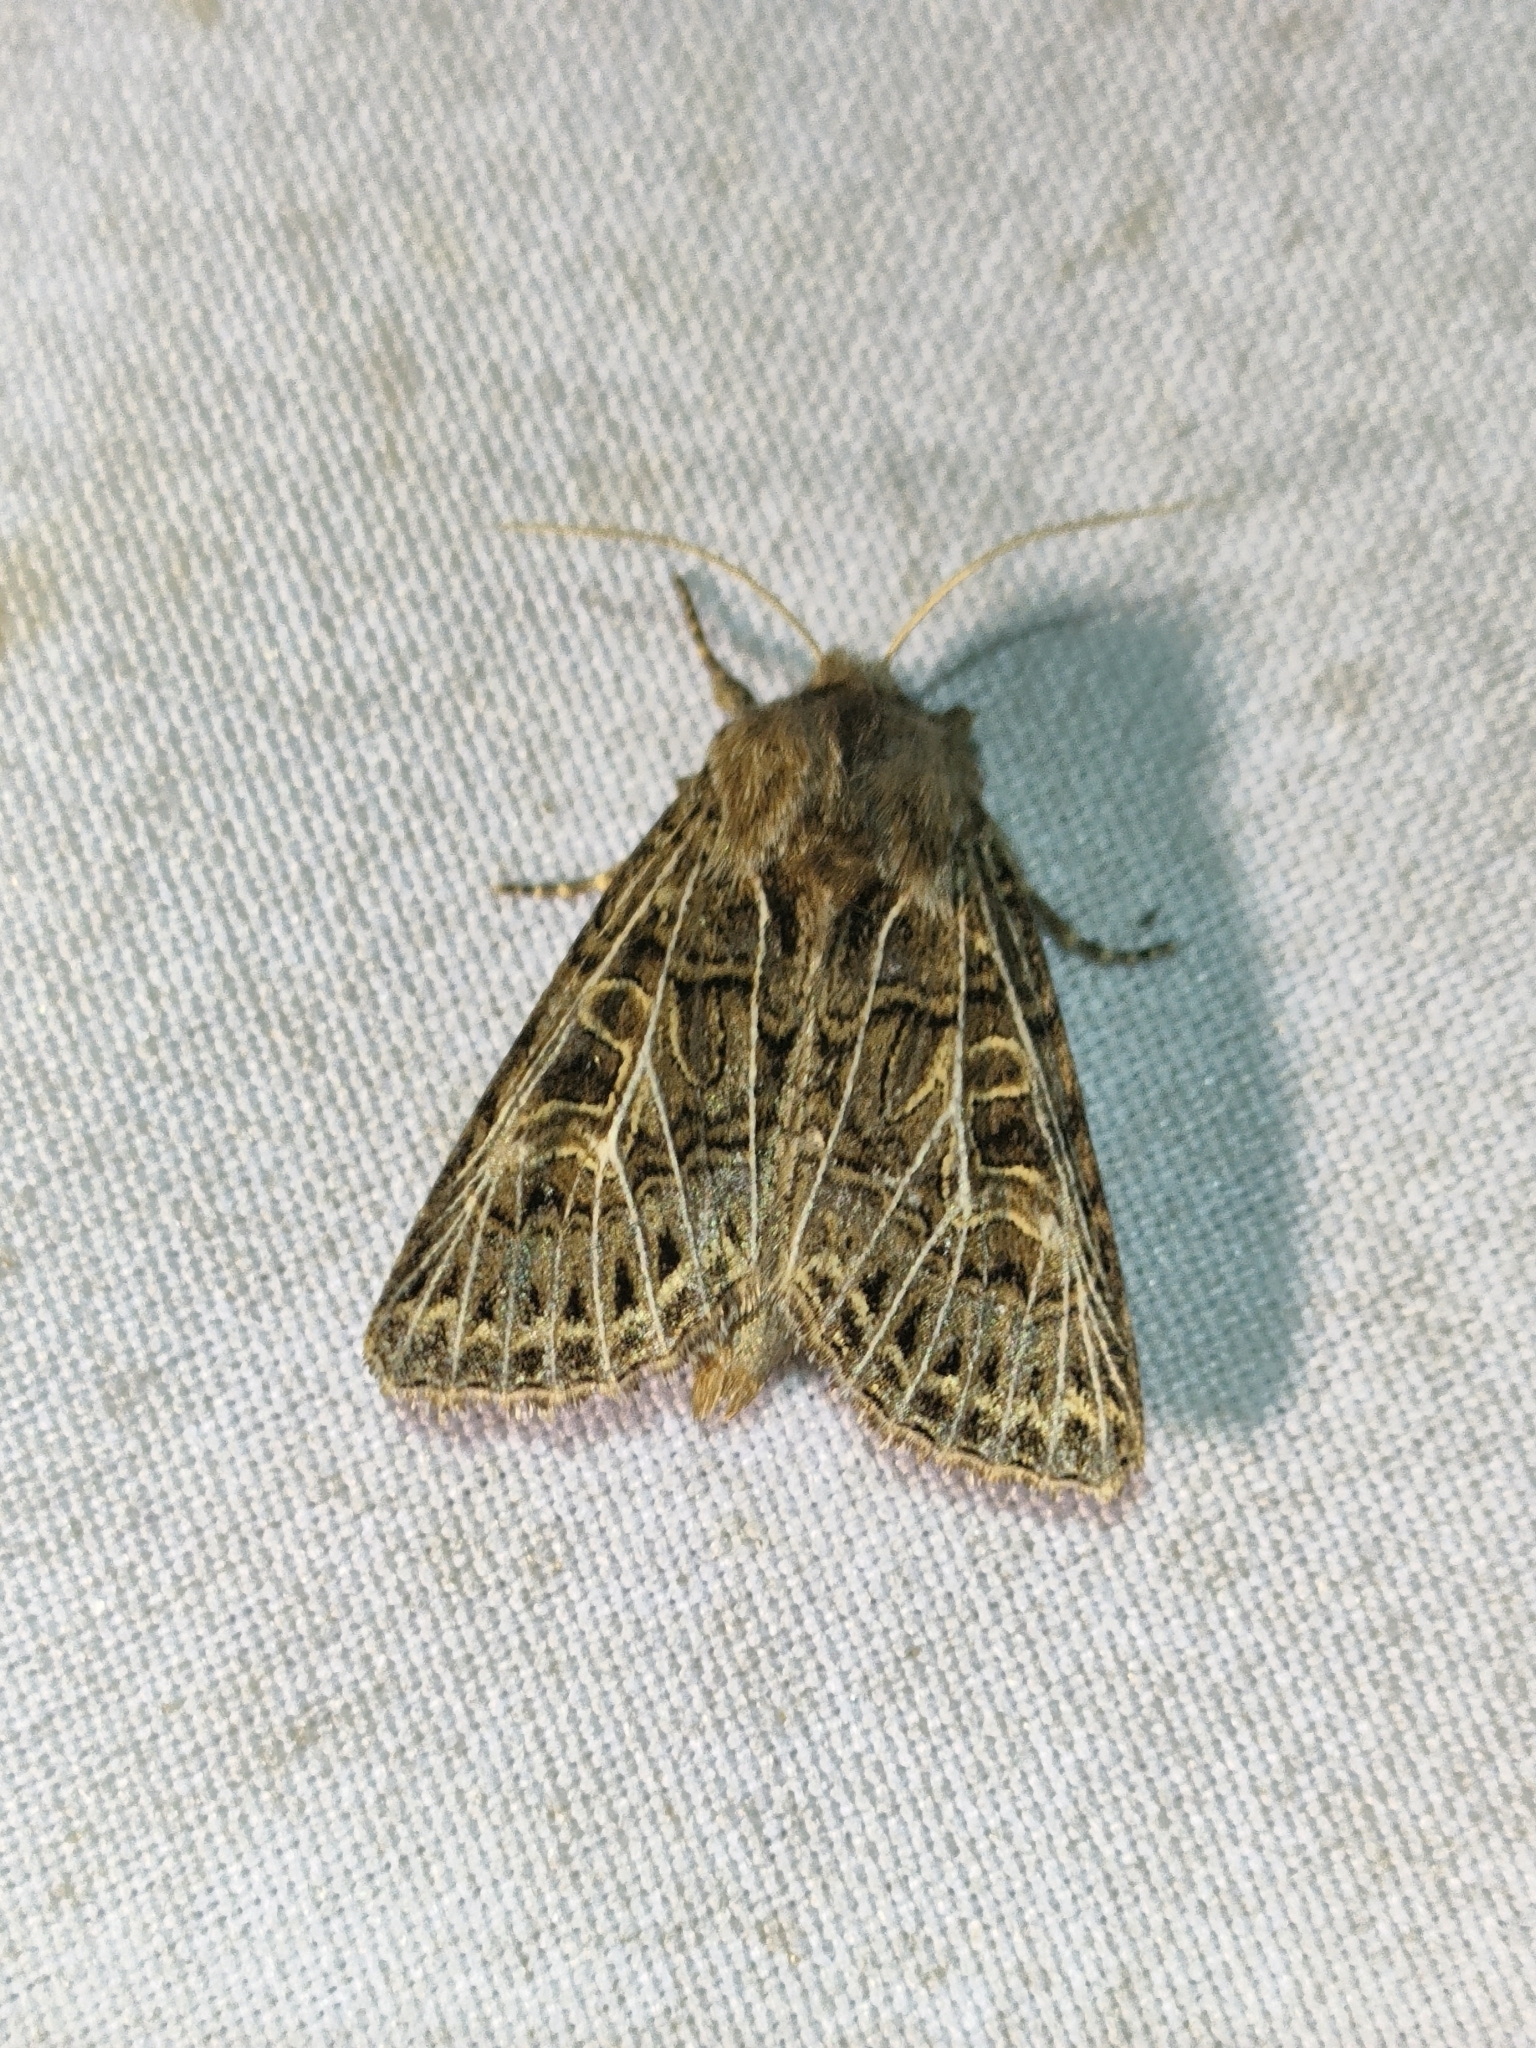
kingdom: Animalia
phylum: Arthropoda
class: Insecta
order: Lepidoptera
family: Noctuidae
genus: Tholera
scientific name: Tholera decimalis
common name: Feathered gothic
